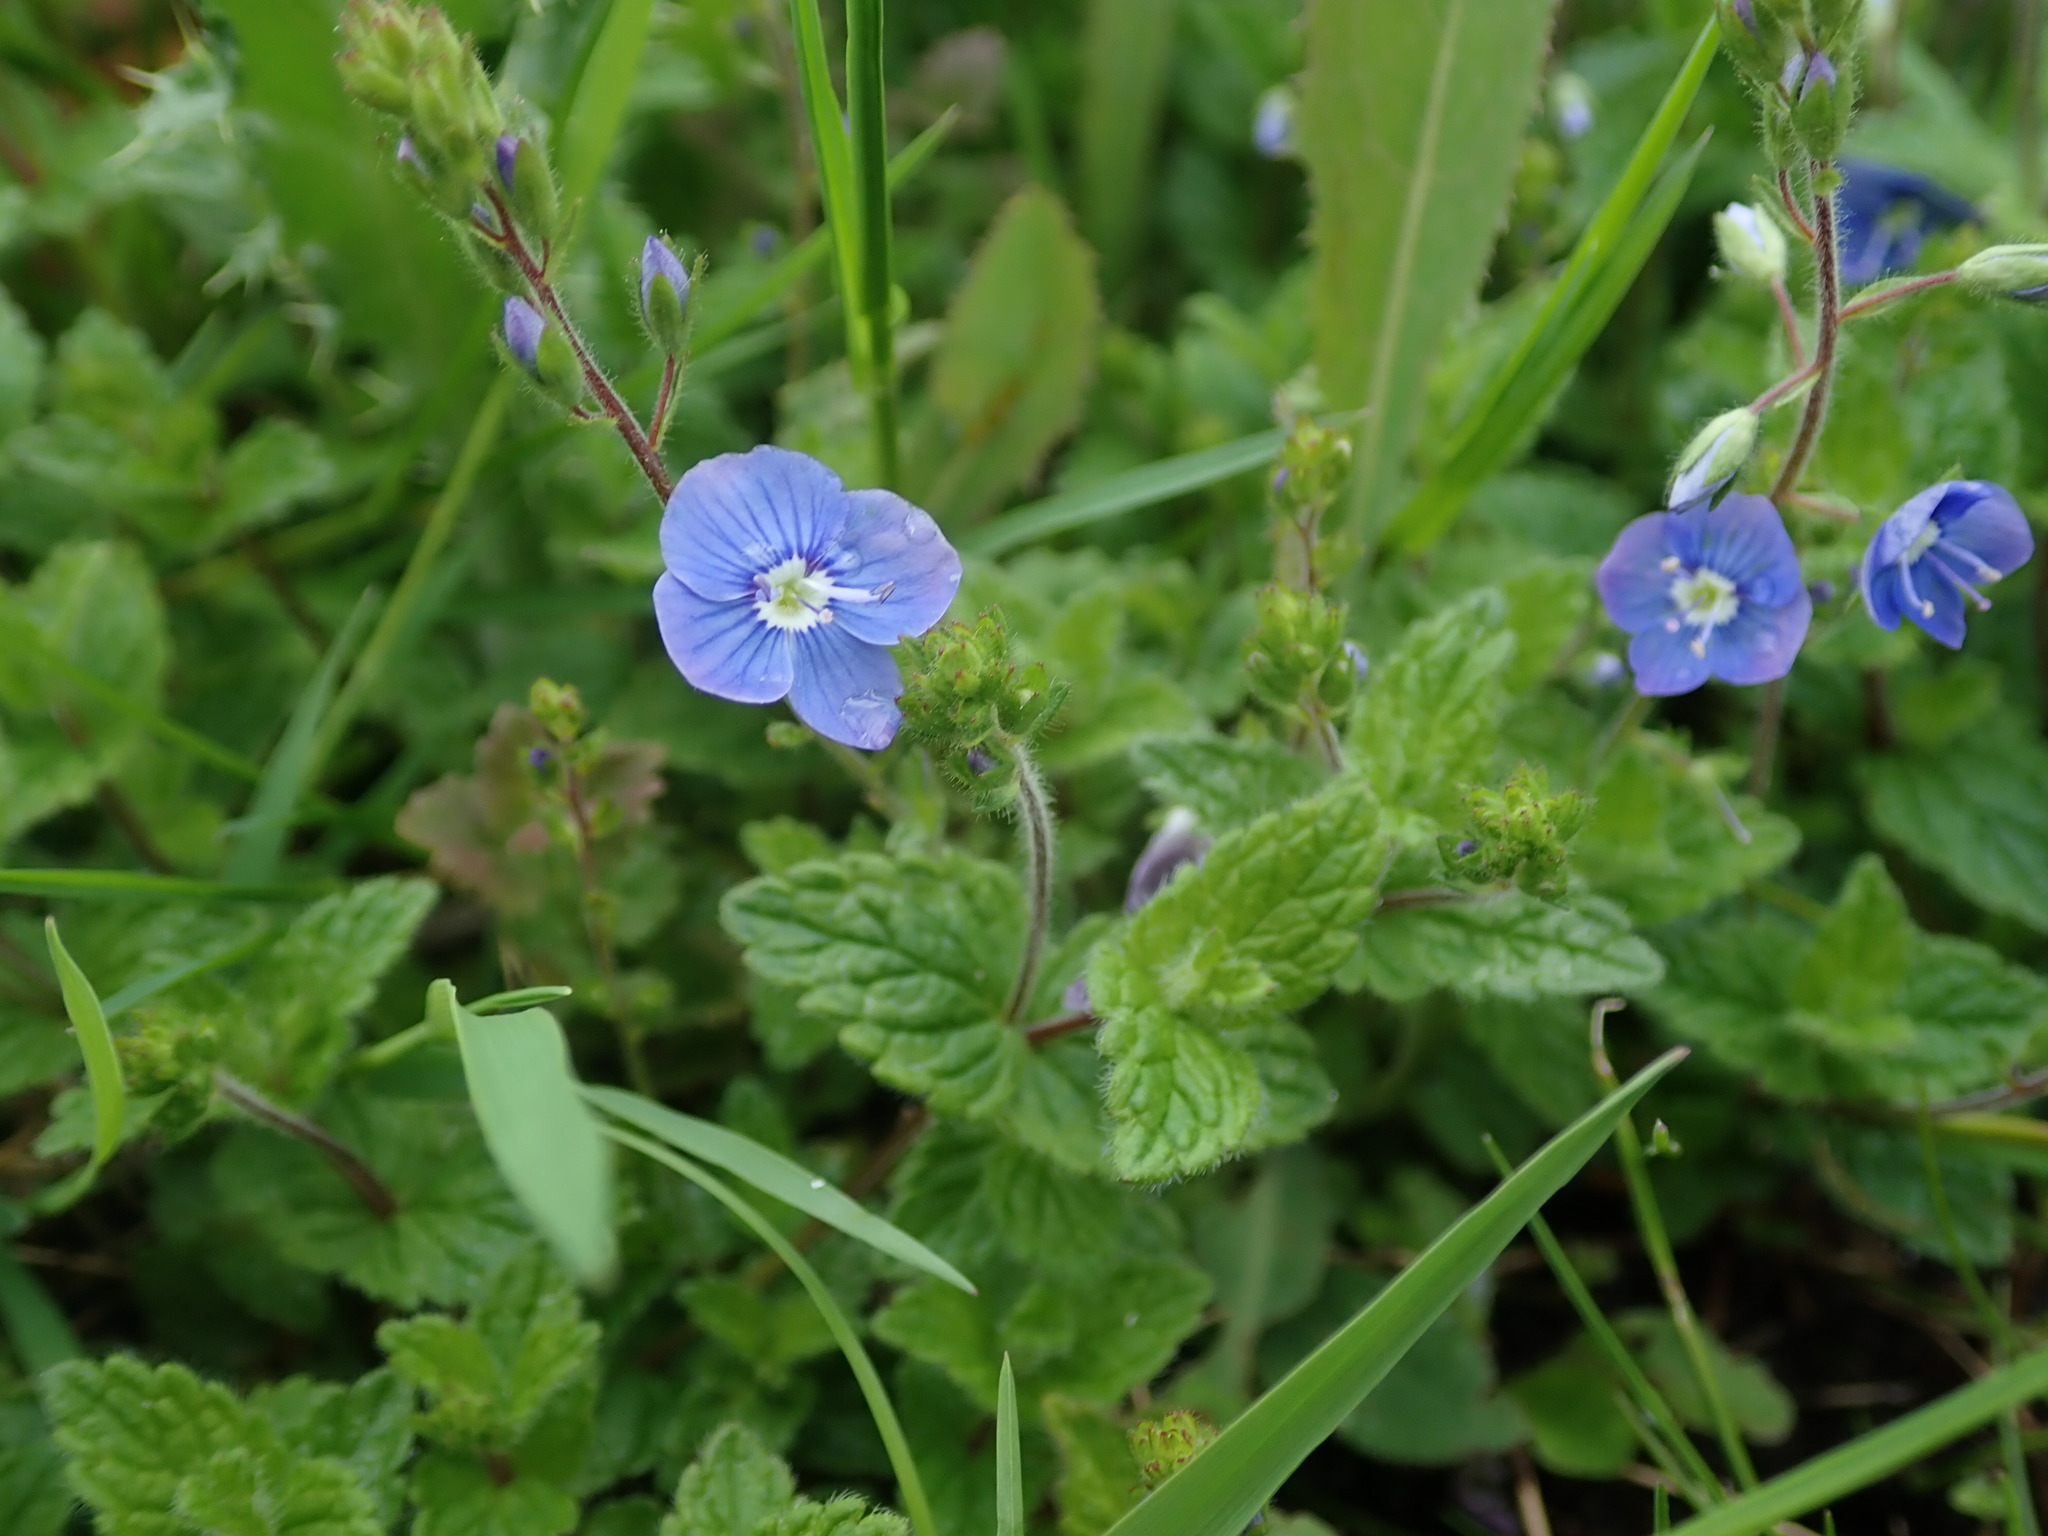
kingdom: Plantae
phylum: Tracheophyta
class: Magnoliopsida
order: Lamiales
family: Plantaginaceae
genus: Veronica
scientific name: Veronica chamaedrys
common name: Germander speedwell
